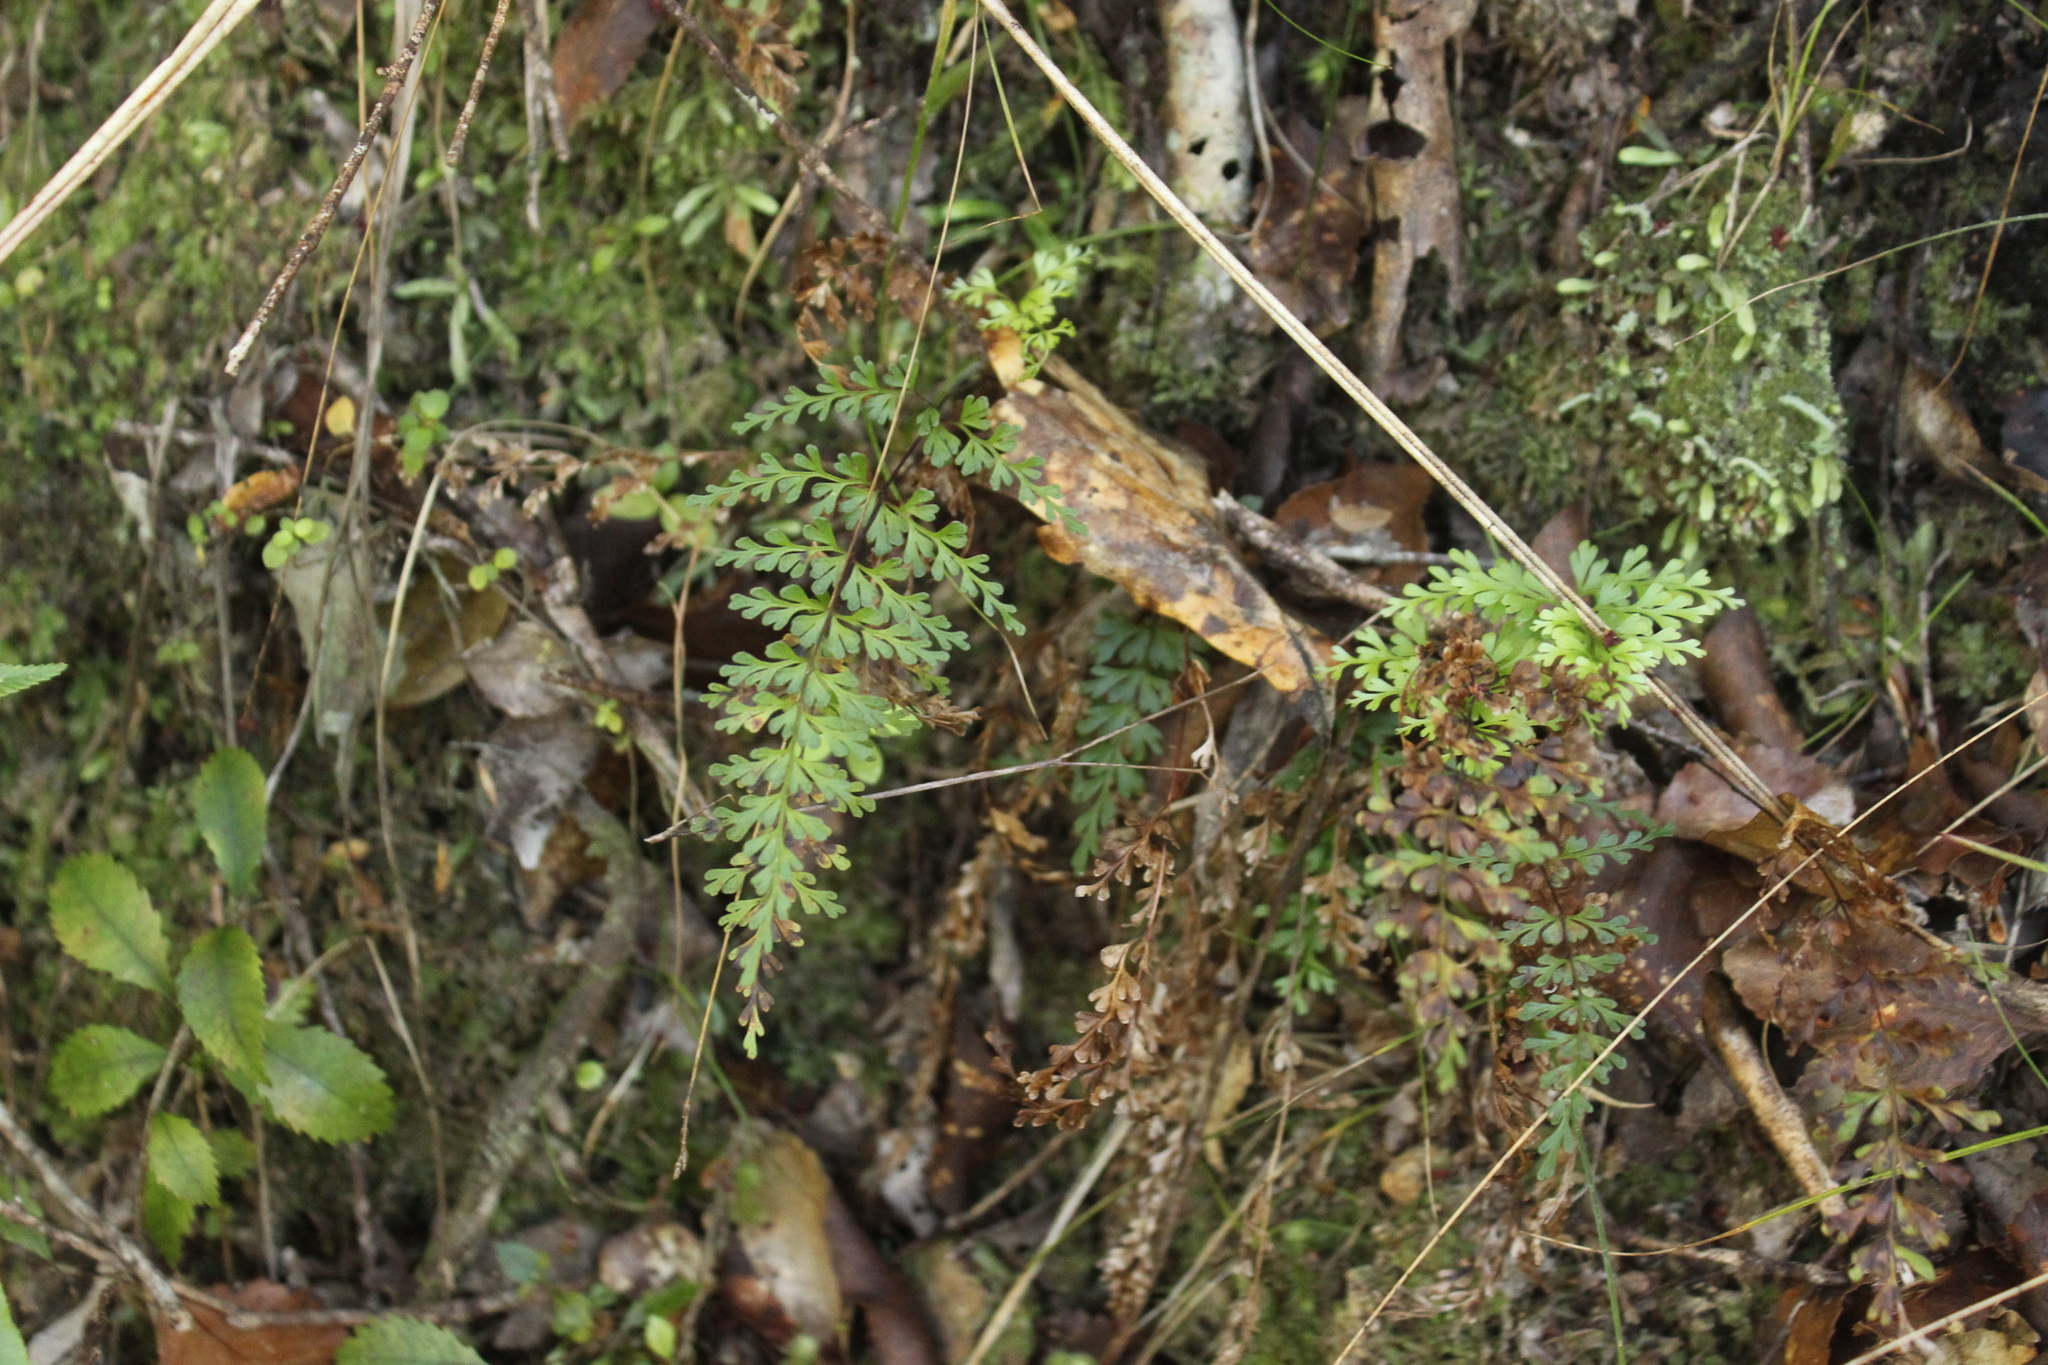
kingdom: Plantae
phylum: Tracheophyta
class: Polypodiopsida
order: Polypodiales
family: Lindsaeaceae
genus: Lindsaea
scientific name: Lindsaea trichomanoides
